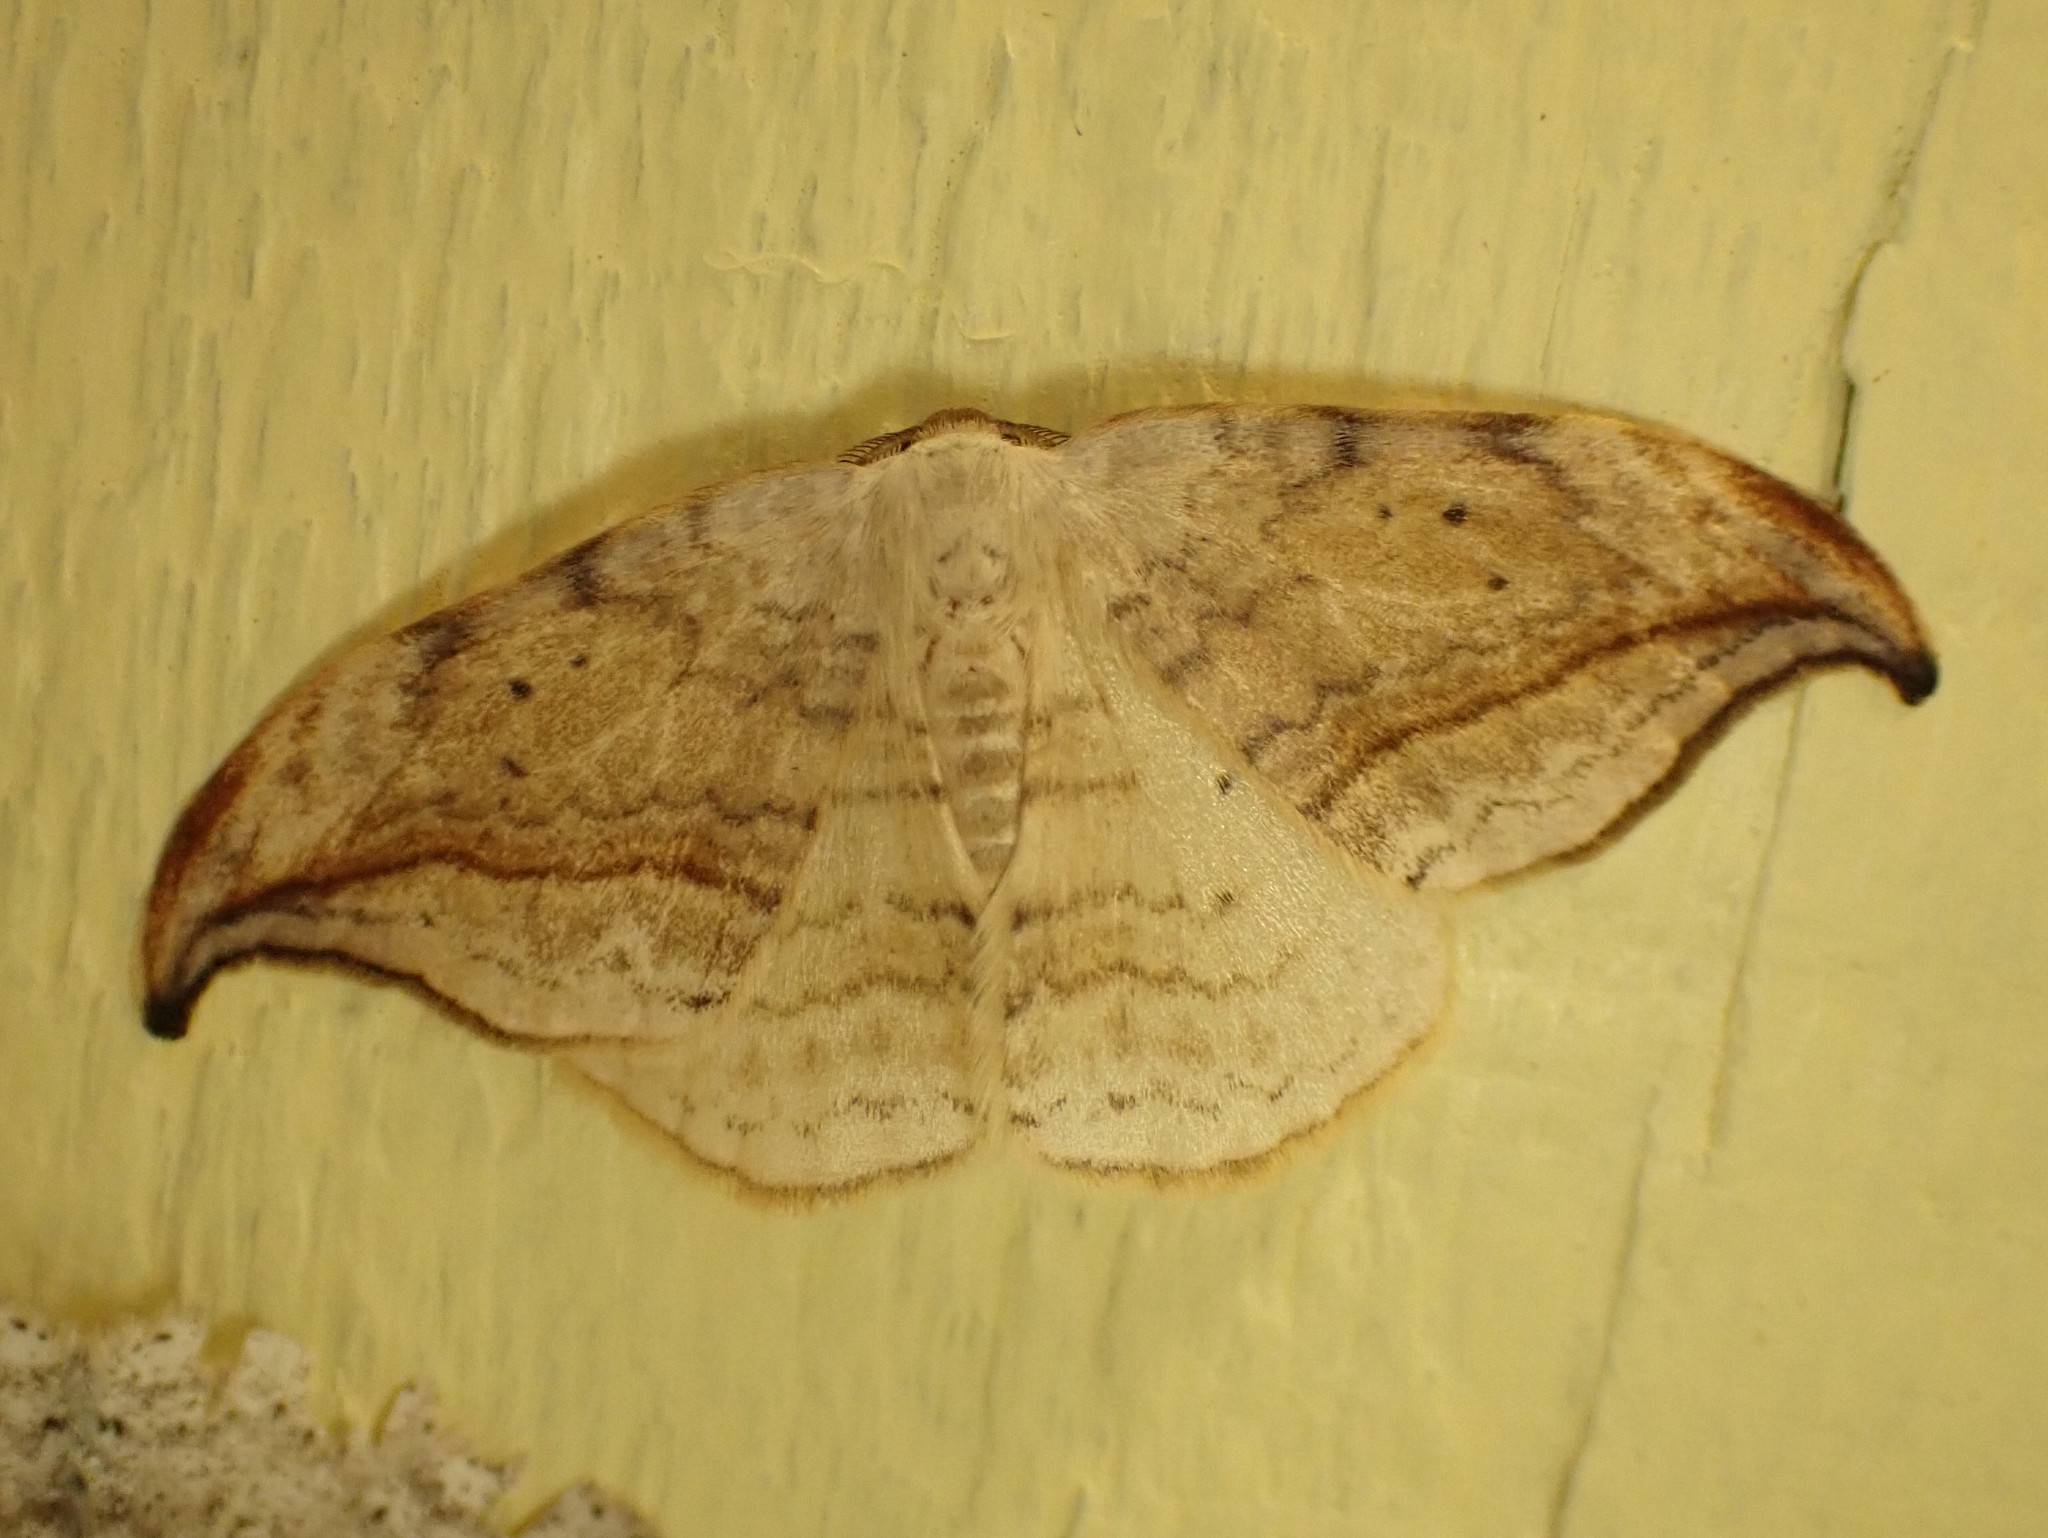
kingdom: Animalia
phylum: Arthropoda
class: Insecta
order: Lepidoptera
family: Drepanidae
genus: Drepana
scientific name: Drepana arcuata
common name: Arched hooktip moth
